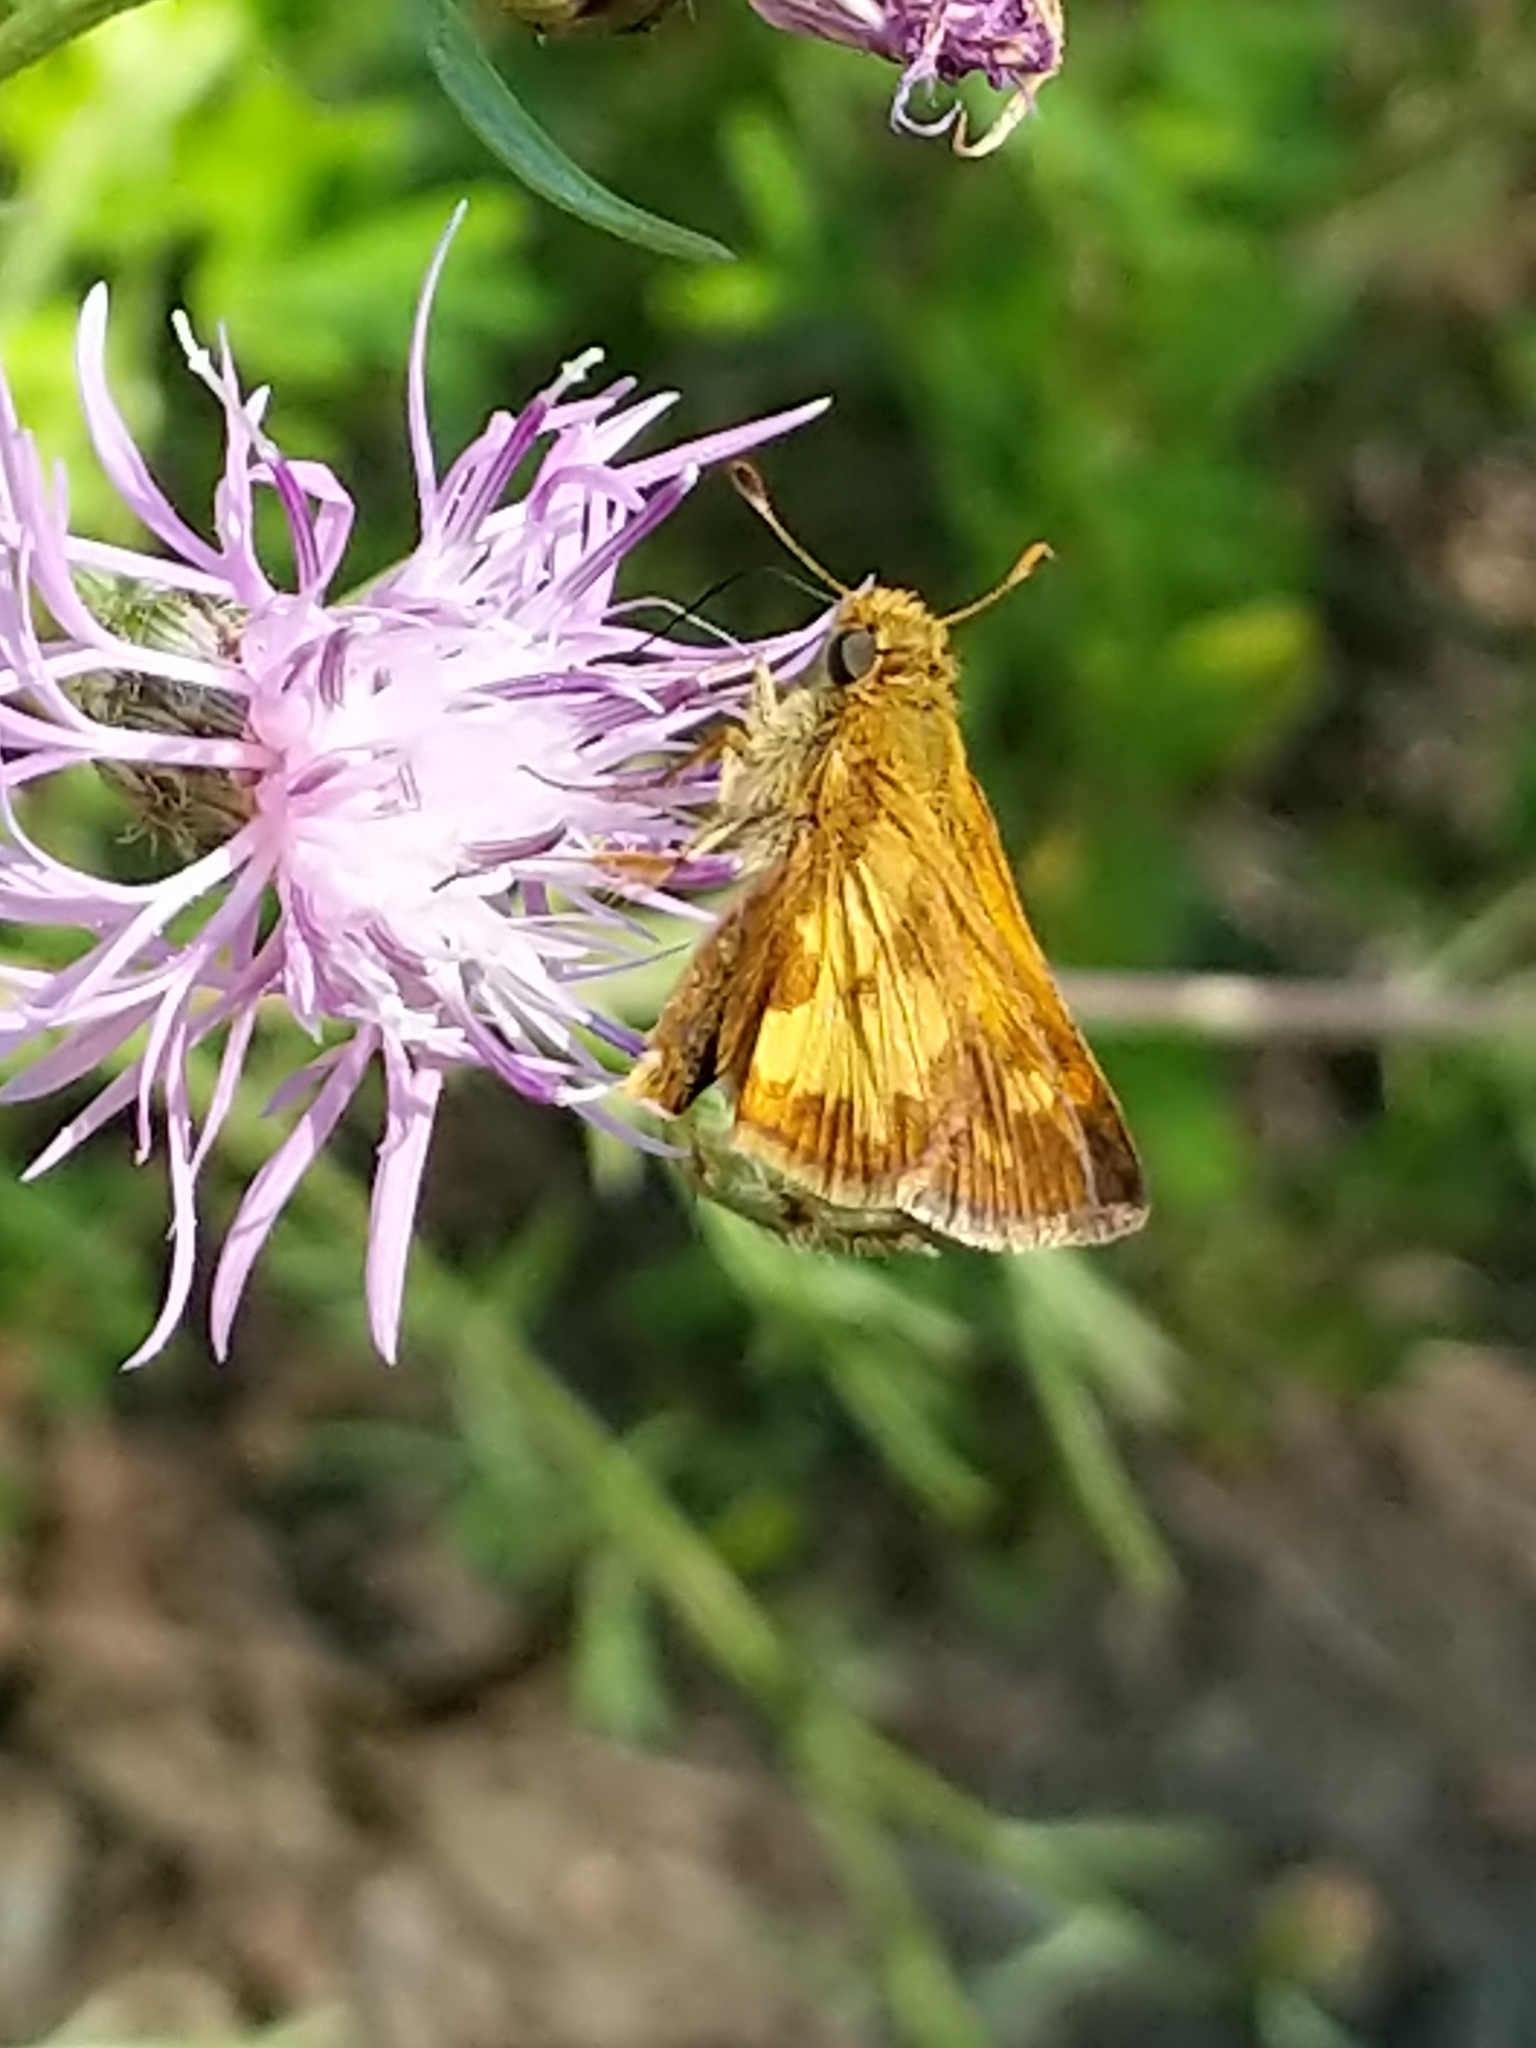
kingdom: Animalia
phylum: Arthropoda
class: Insecta
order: Lepidoptera
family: Hesperiidae
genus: Polites
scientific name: Polites coras
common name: Peck's skipper
